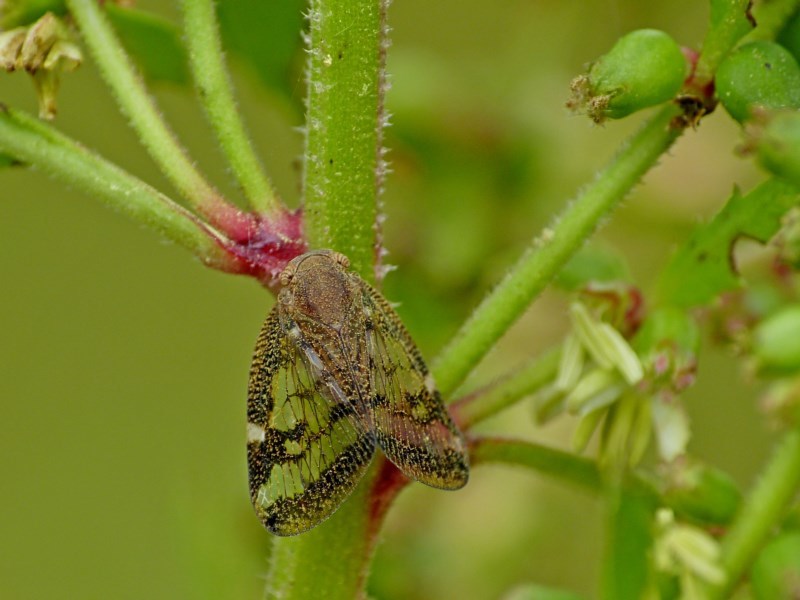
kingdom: Animalia
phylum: Arthropoda
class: Insecta
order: Hemiptera
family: Ricaniidae
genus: Scolypopa
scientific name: Scolypopa australis
